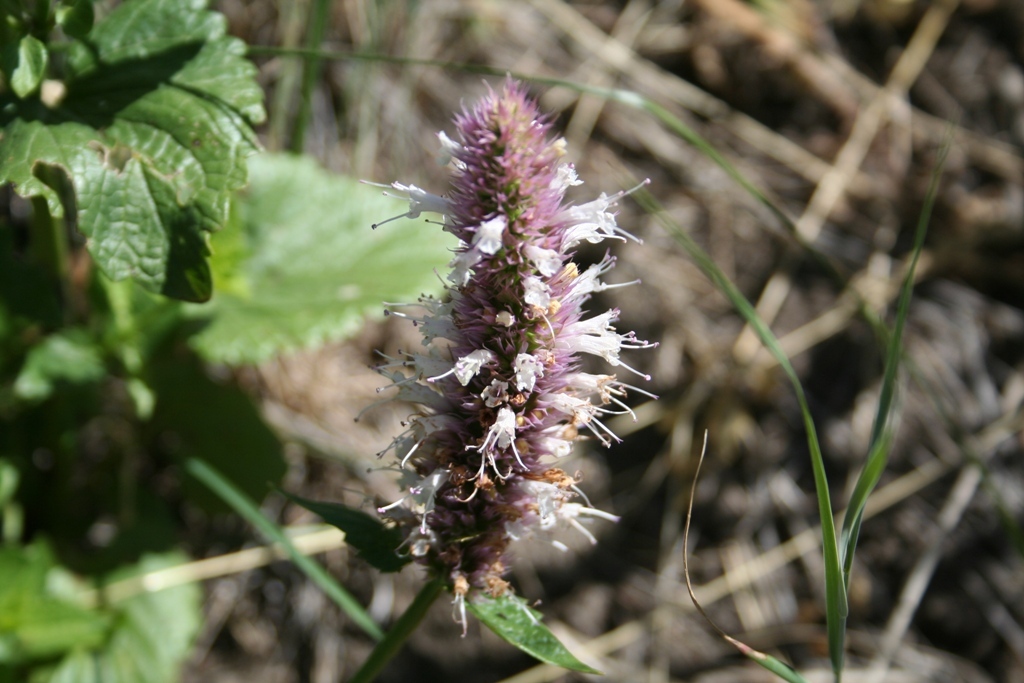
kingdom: Plantae
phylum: Tracheophyta
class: Magnoliopsida
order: Lamiales
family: Lamiaceae
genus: Agastache
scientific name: Agastache urticifolia
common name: Horsemint giant hyssop
